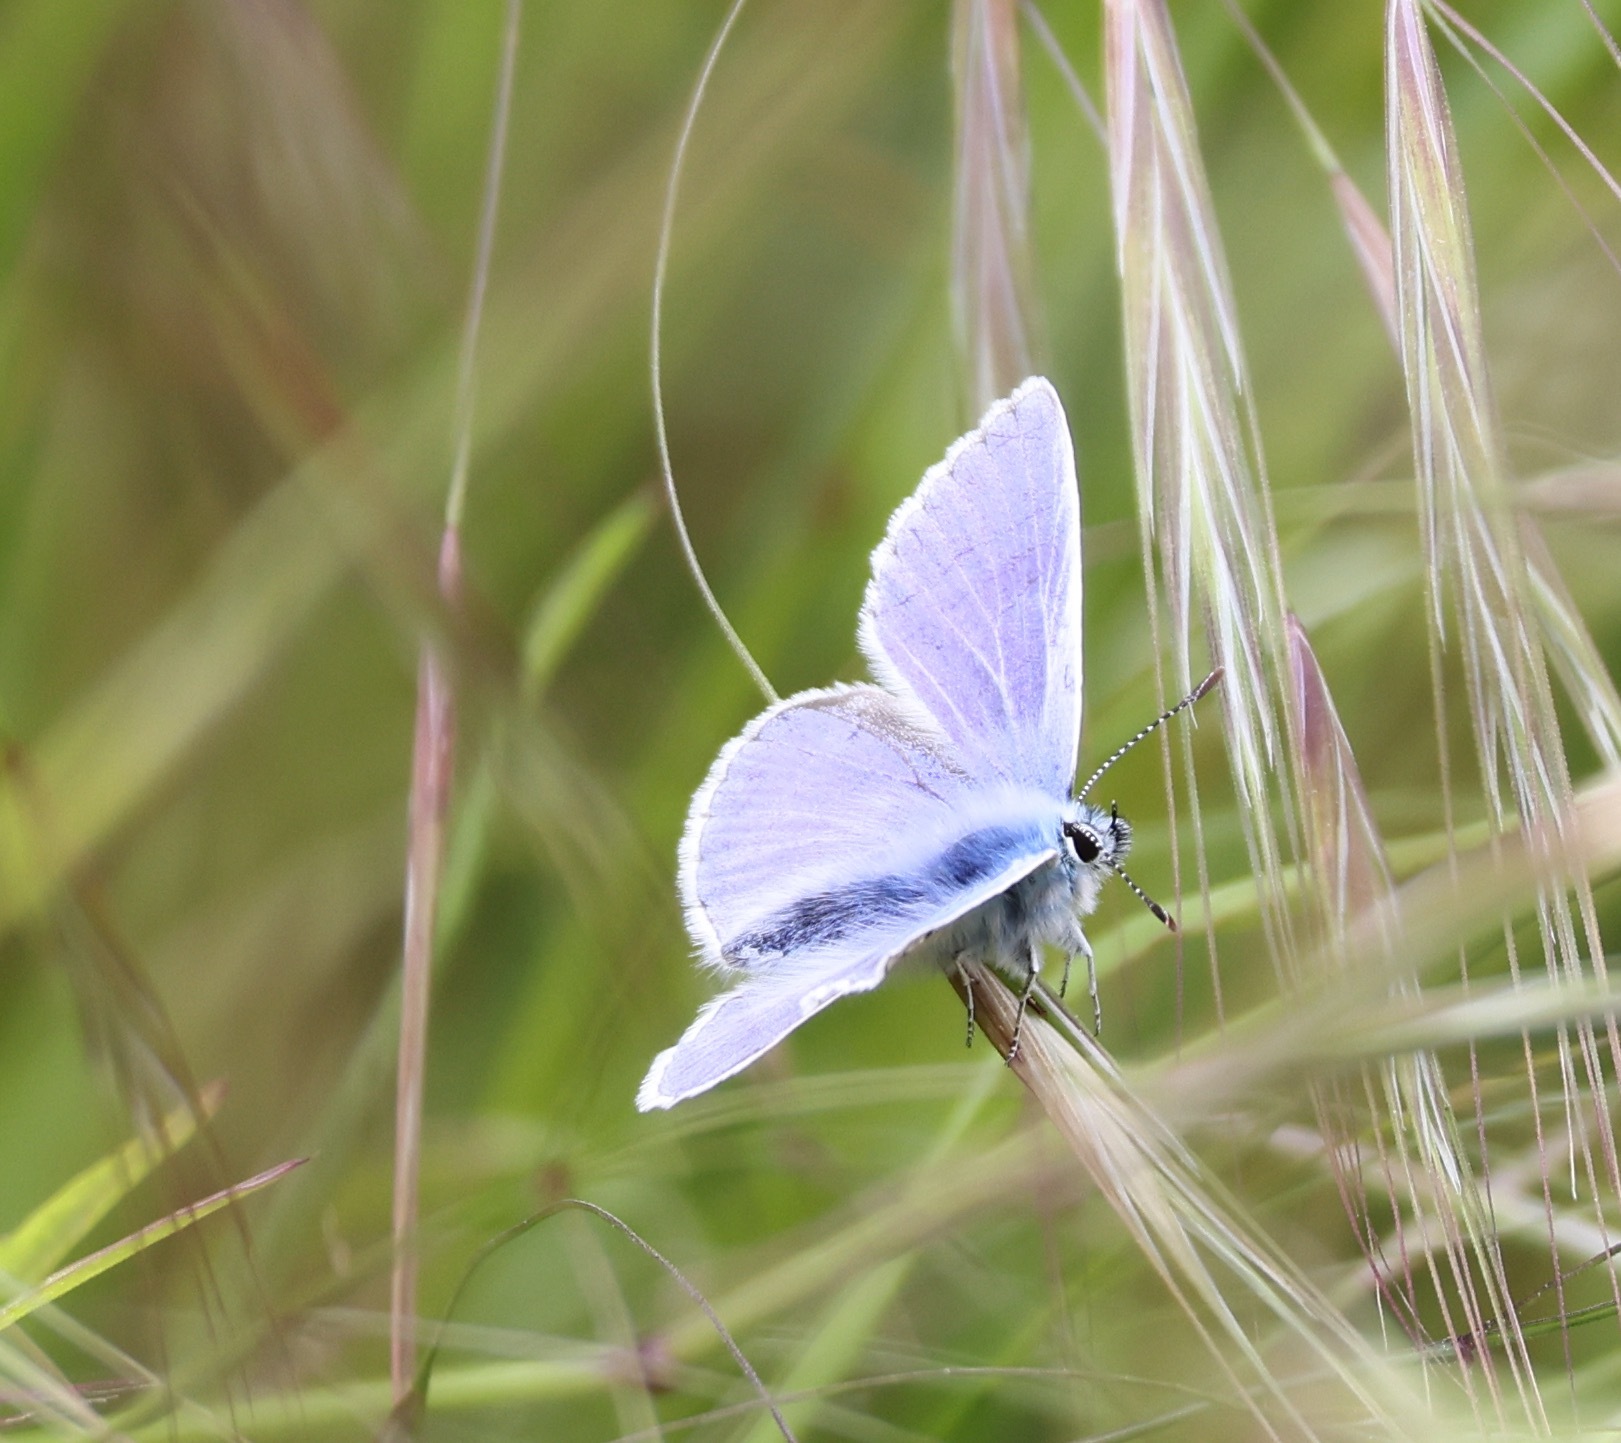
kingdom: Animalia
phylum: Arthropoda
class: Insecta
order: Lepidoptera
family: Lycaenidae
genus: Polyommatus
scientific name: Polyommatus icarus
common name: Common blue
